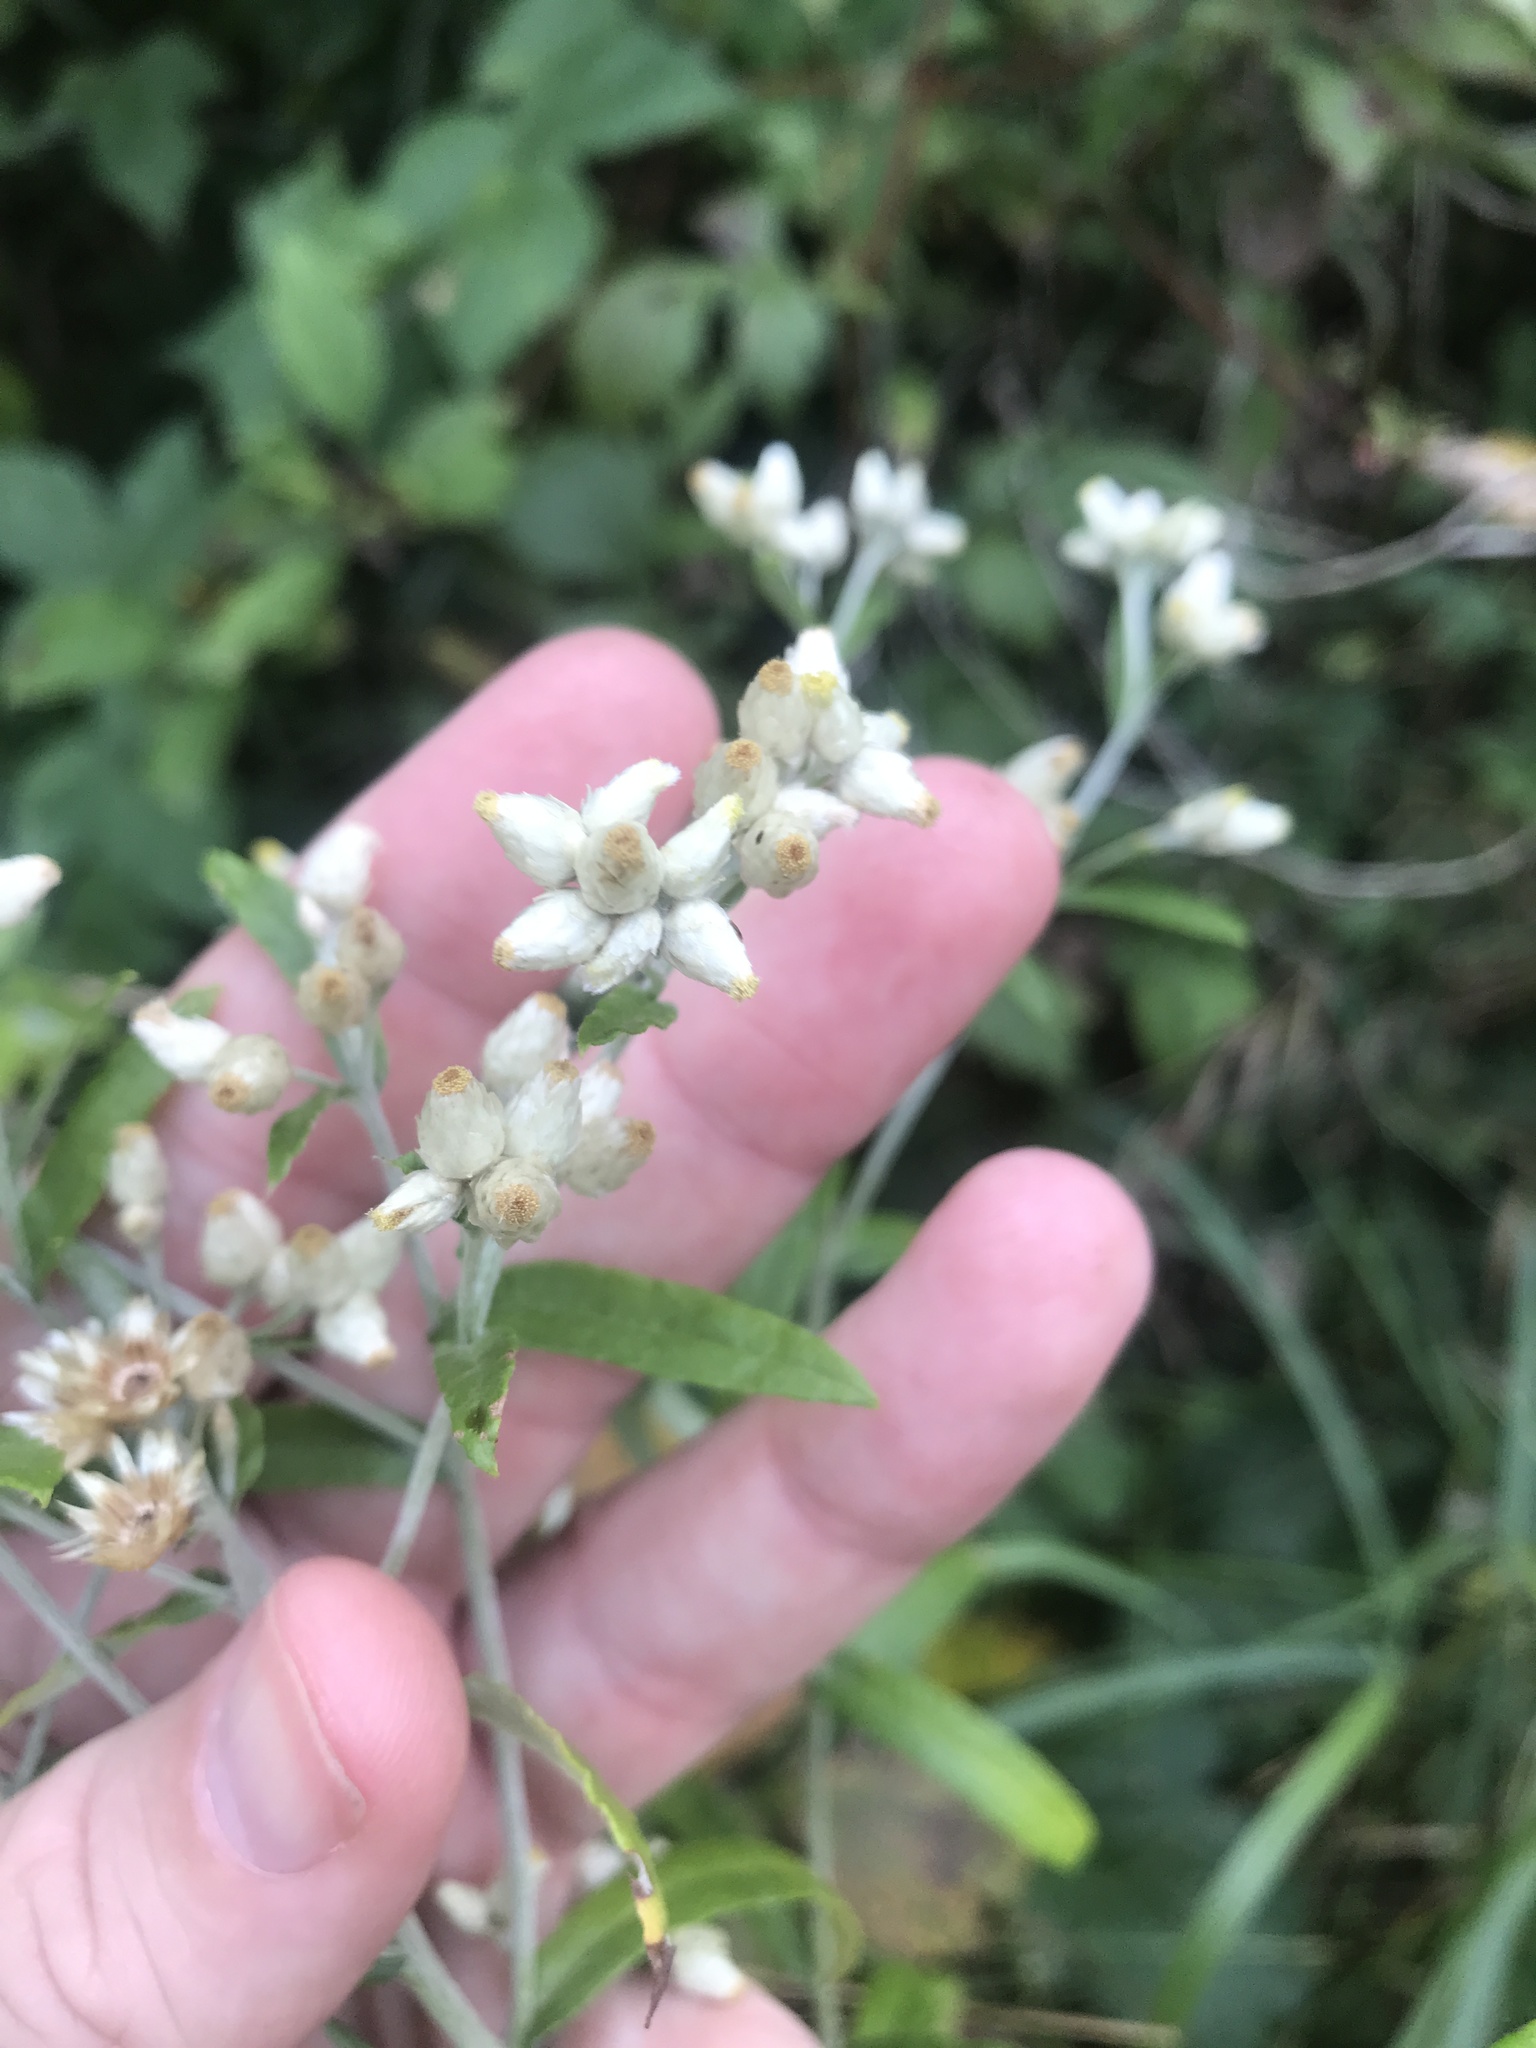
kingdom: Plantae
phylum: Tracheophyta
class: Magnoliopsida
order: Asterales
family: Asteraceae
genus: Pseudognaphalium
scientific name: Pseudognaphalium obtusifolium
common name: Eastern rabbit-tobacco
